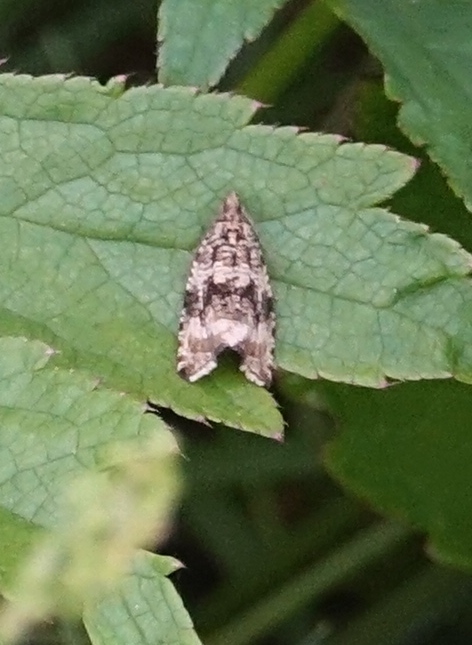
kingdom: Animalia
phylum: Arthropoda
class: Insecta
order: Lepidoptera
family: Tortricidae
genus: Syricoris
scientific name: Syricoris lacunana
